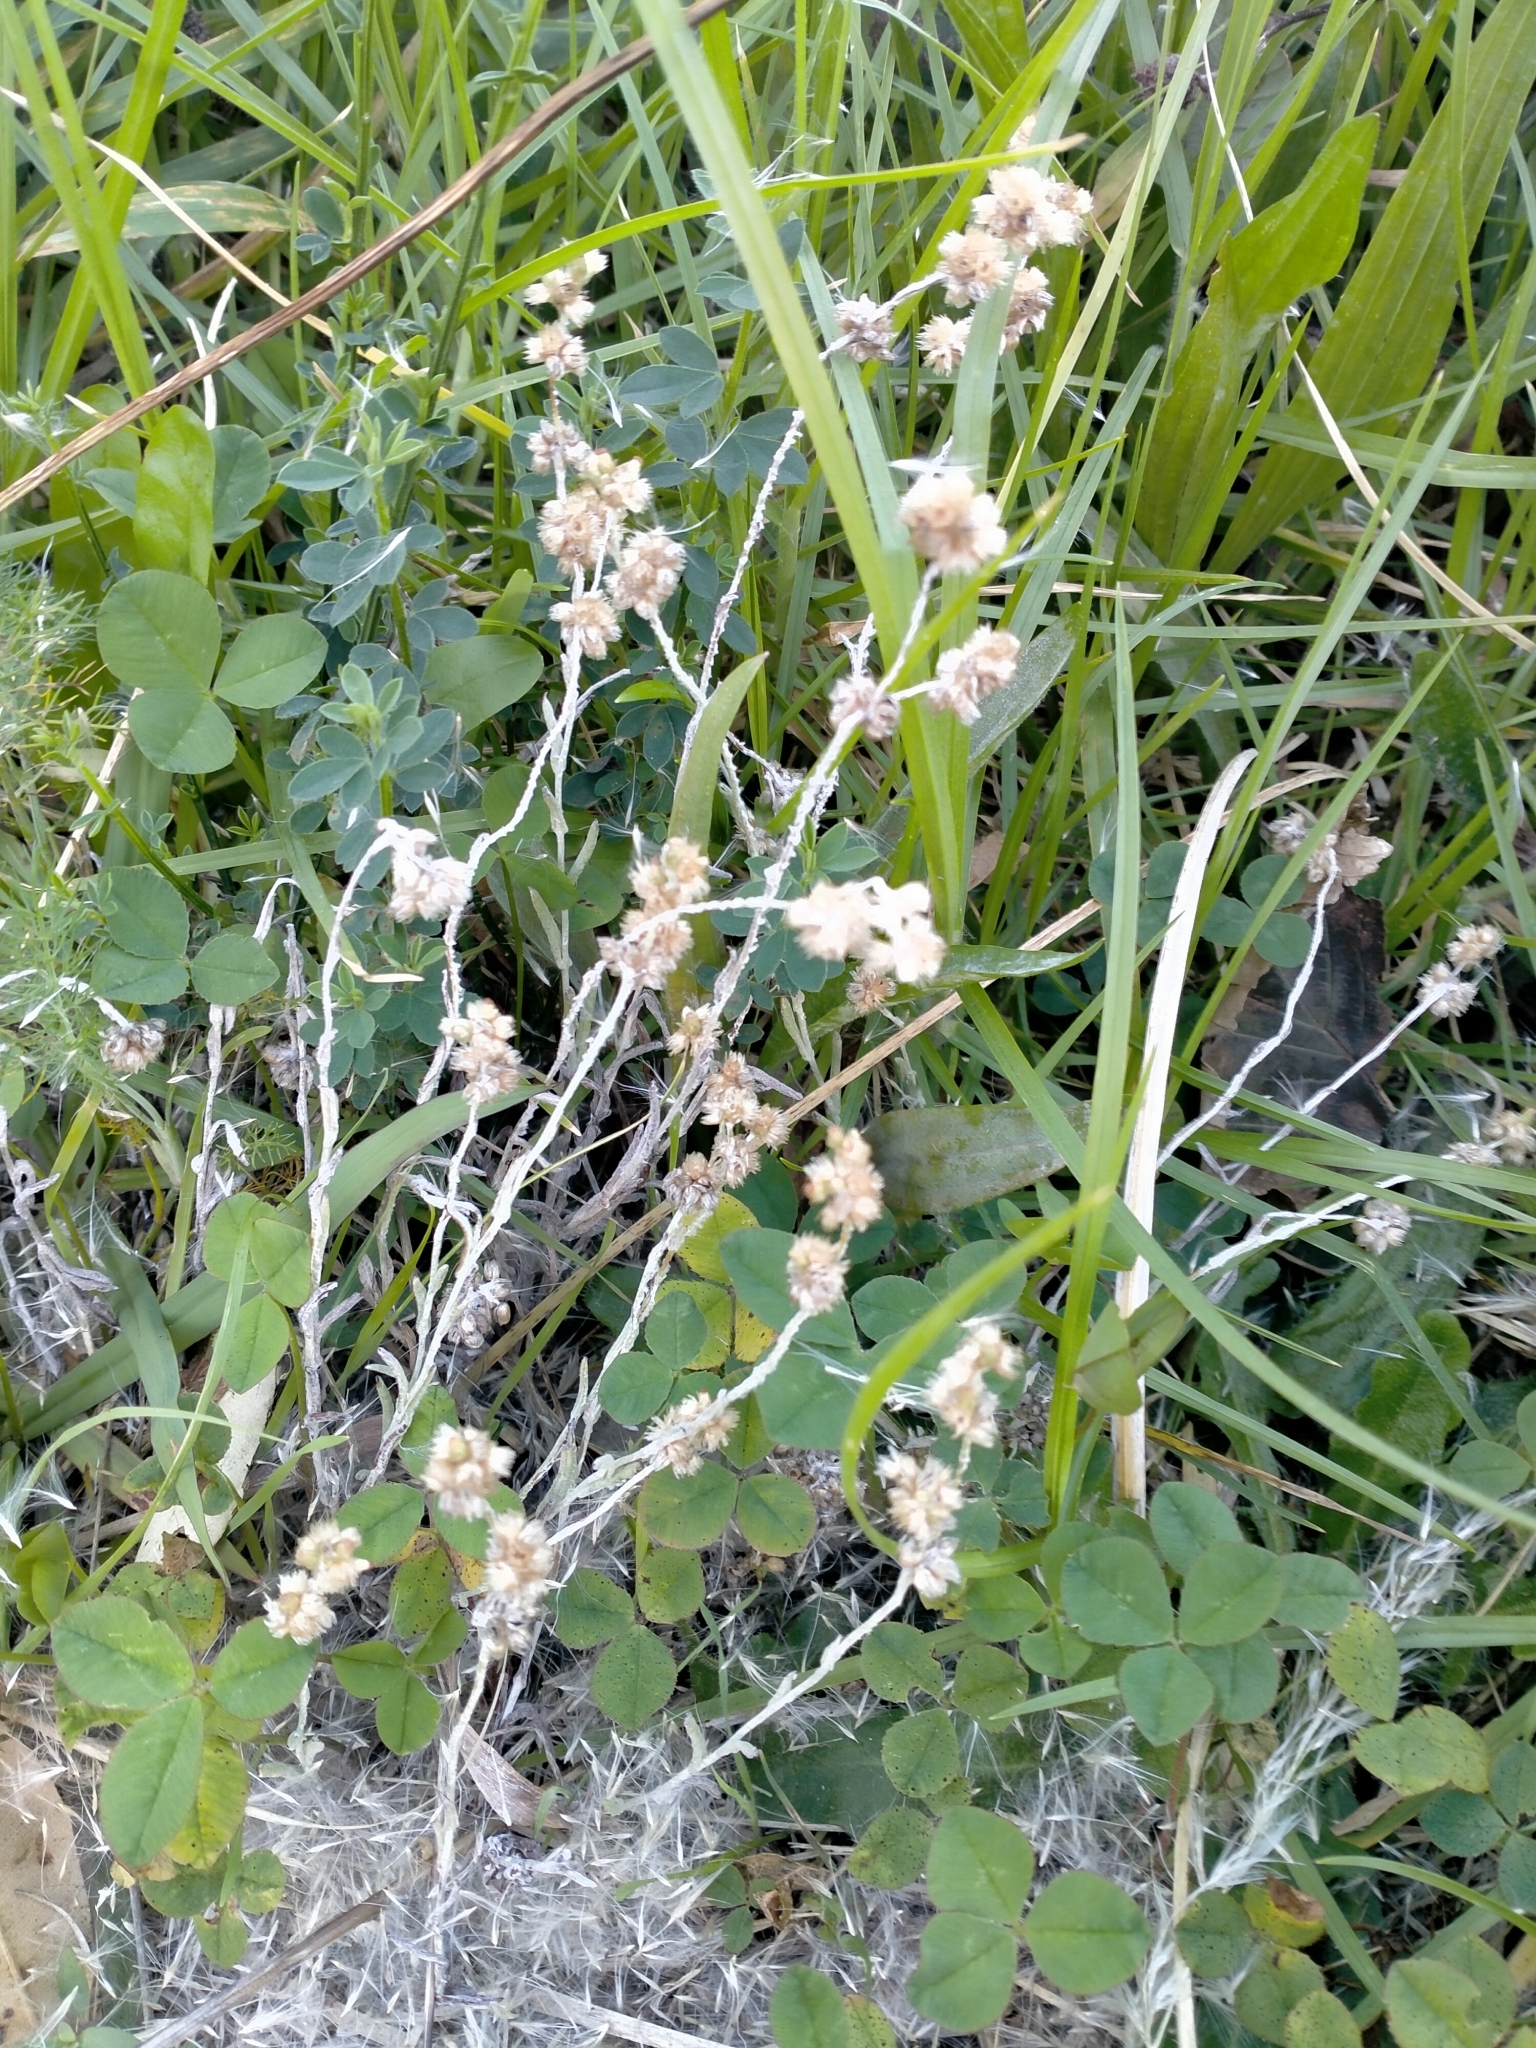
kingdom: Plantae
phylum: Tracheophyta
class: Magnoliopsida
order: Asterales
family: Asteraceae
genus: Helichrysum
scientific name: Helichrysum luteoalbum
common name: Daisy
